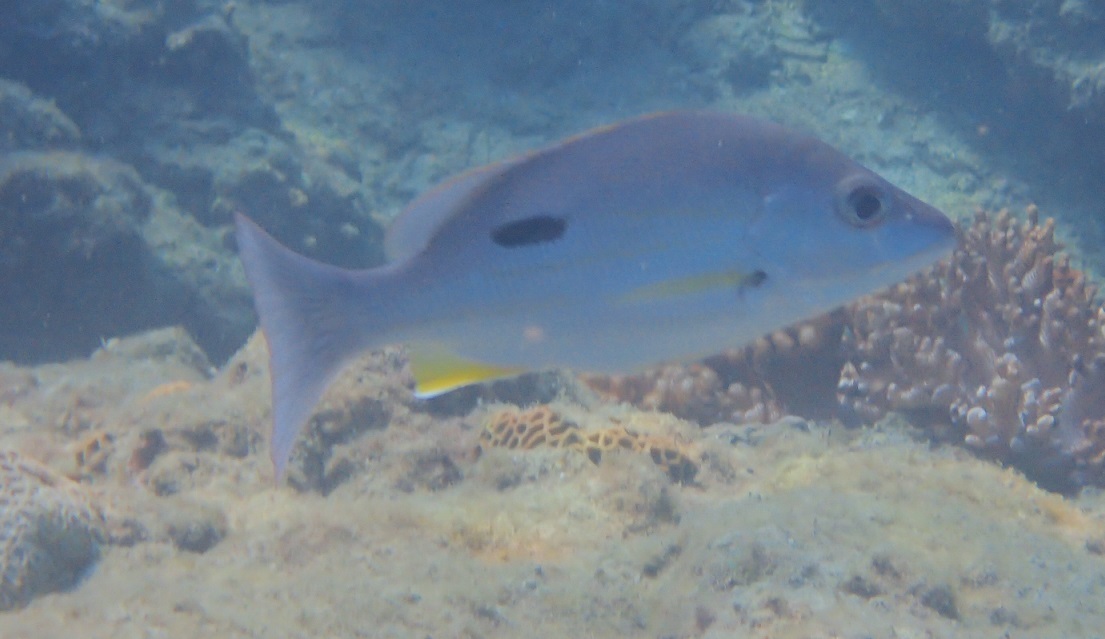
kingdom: Animalia
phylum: Chordata
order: Perciformes
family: Lutjanidae
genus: Lutjanus
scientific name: Lutjanus russellii
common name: Russell's snapper
